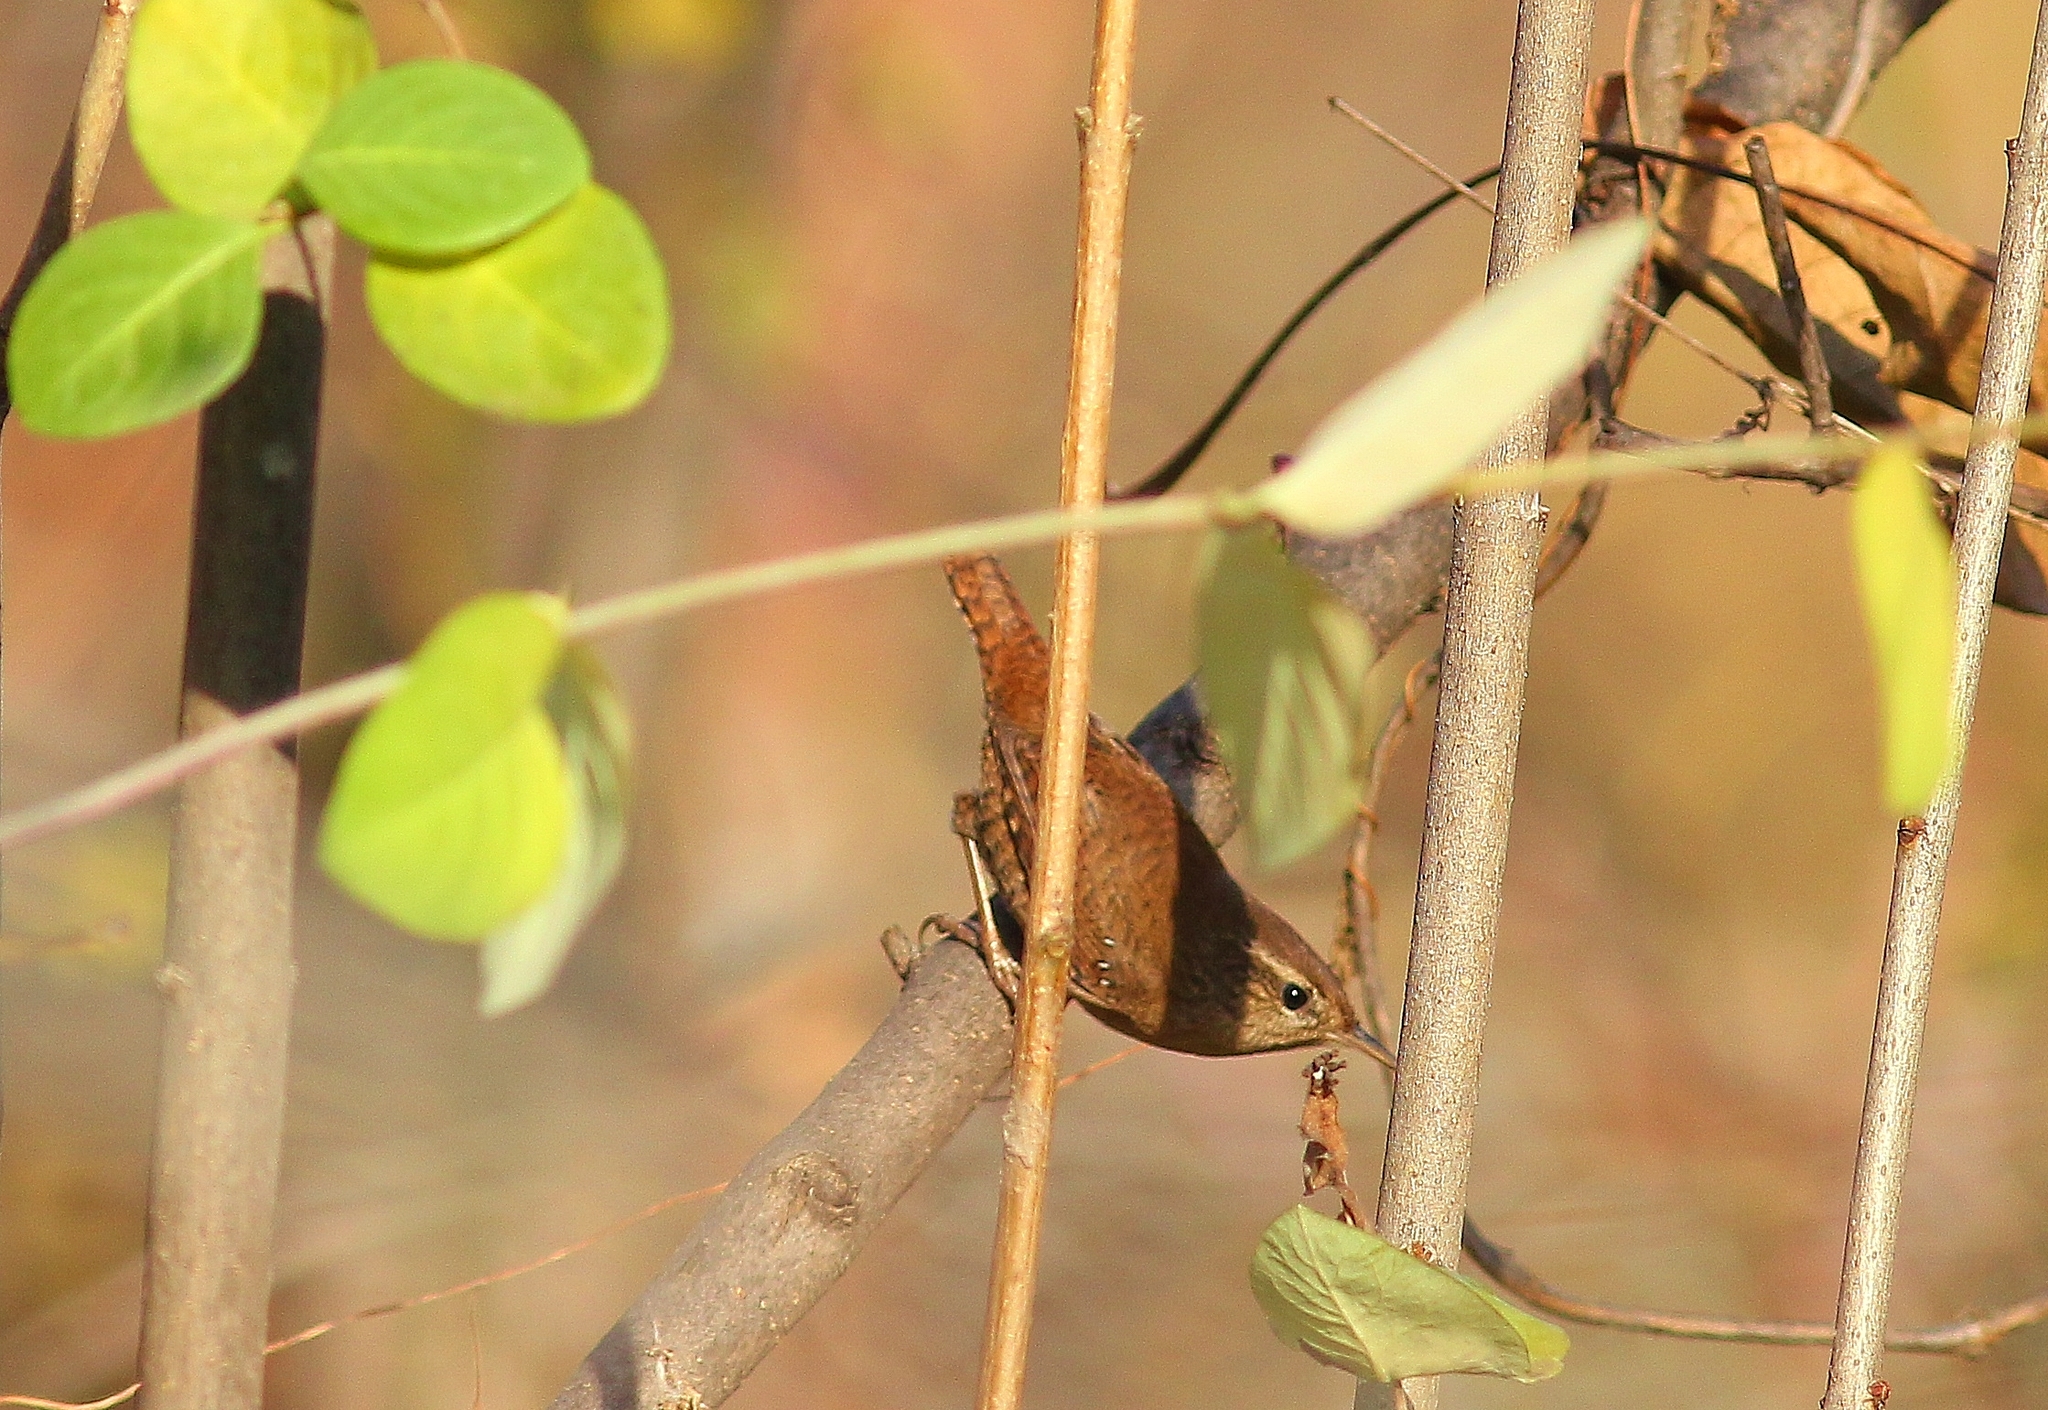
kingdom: Animalia
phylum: Chordata
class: Aves
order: Passeriformes
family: Troglodytidae
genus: Troglodytes
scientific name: Troglodytes troglodytes
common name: Eurasian wren
